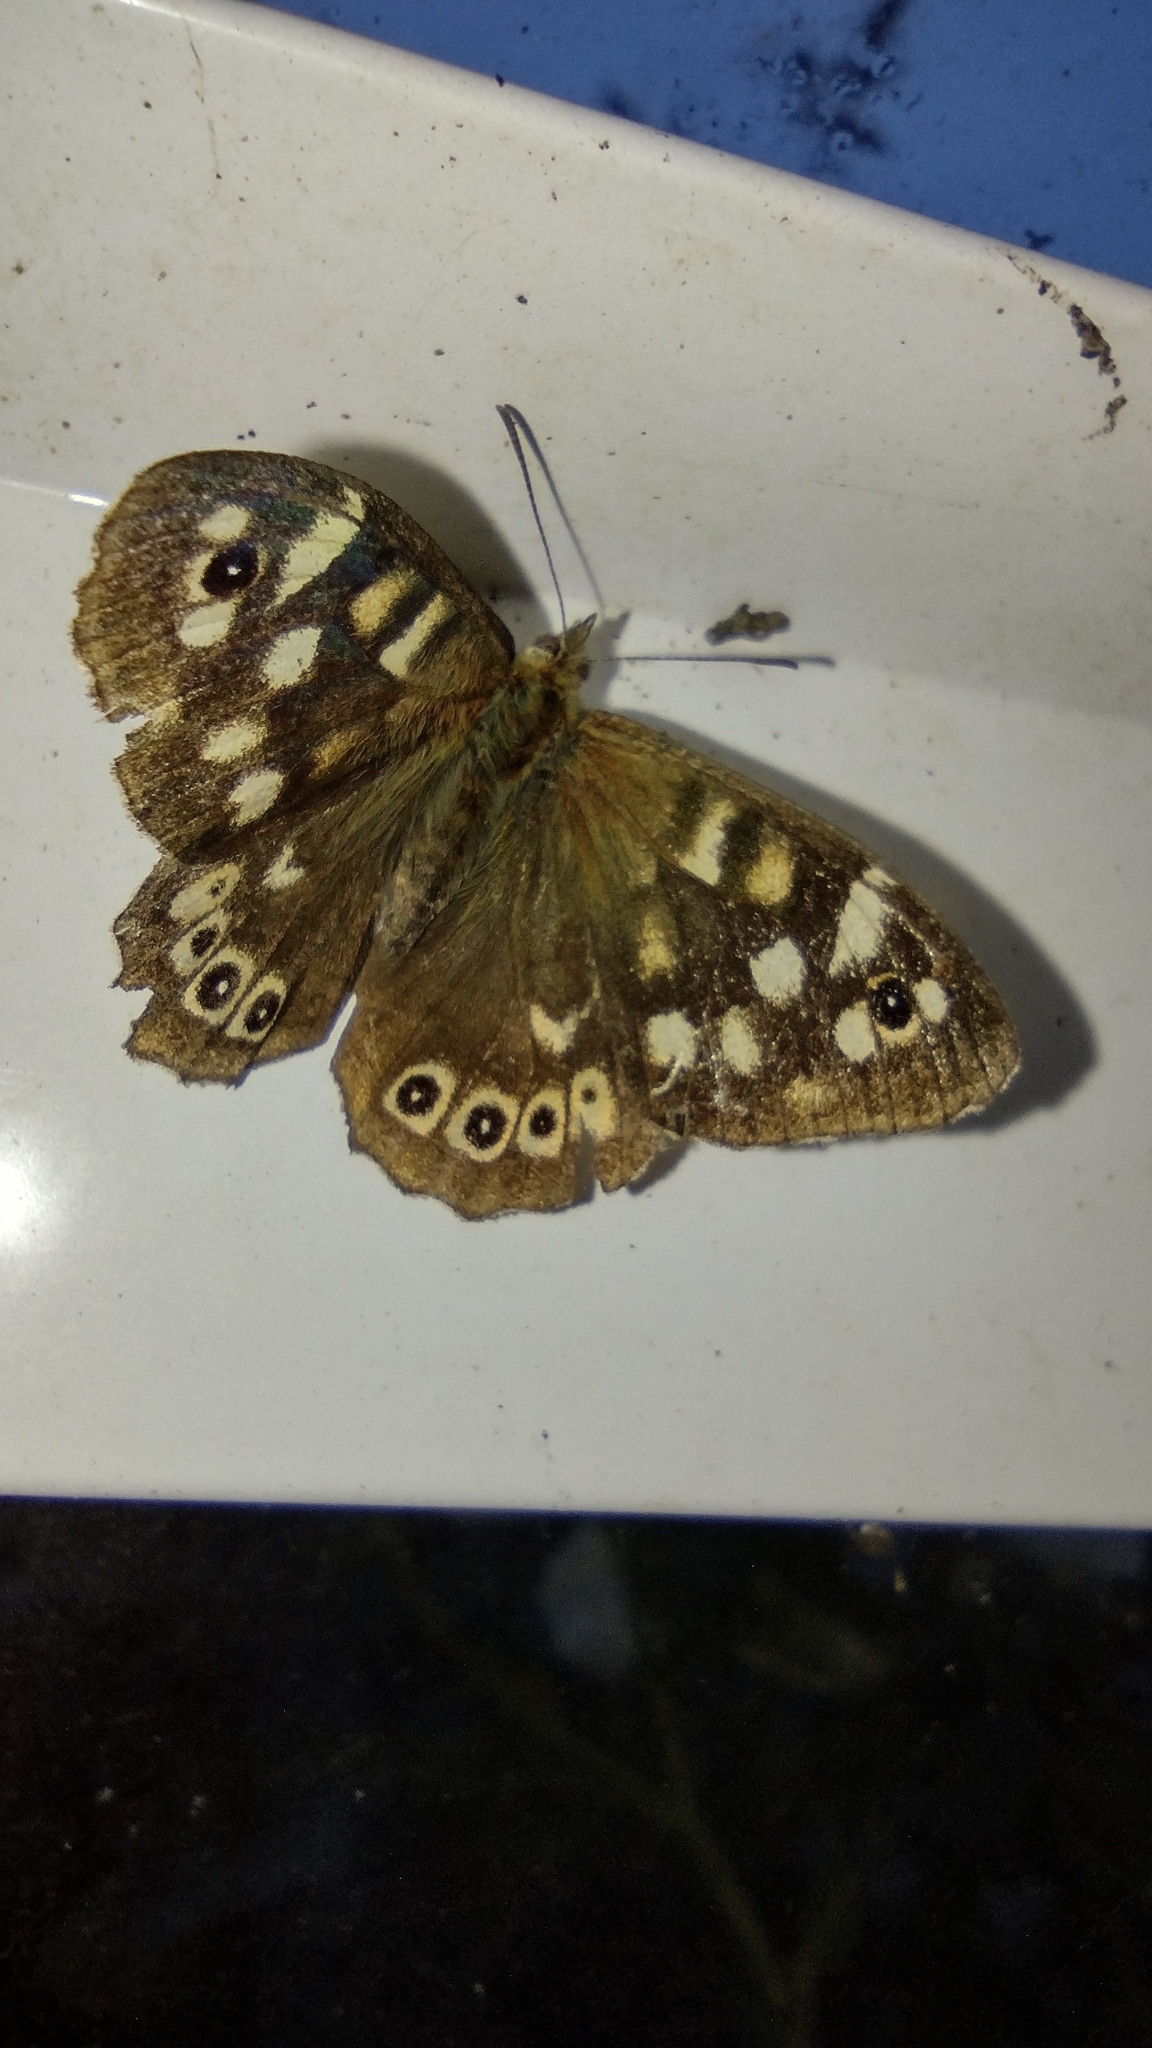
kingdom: Animalia
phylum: Arthropoda
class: Insecta
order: Lepidoptera
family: Nymphalidae
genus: Pararge
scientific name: Pararge aegeria
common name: Speckled wood
